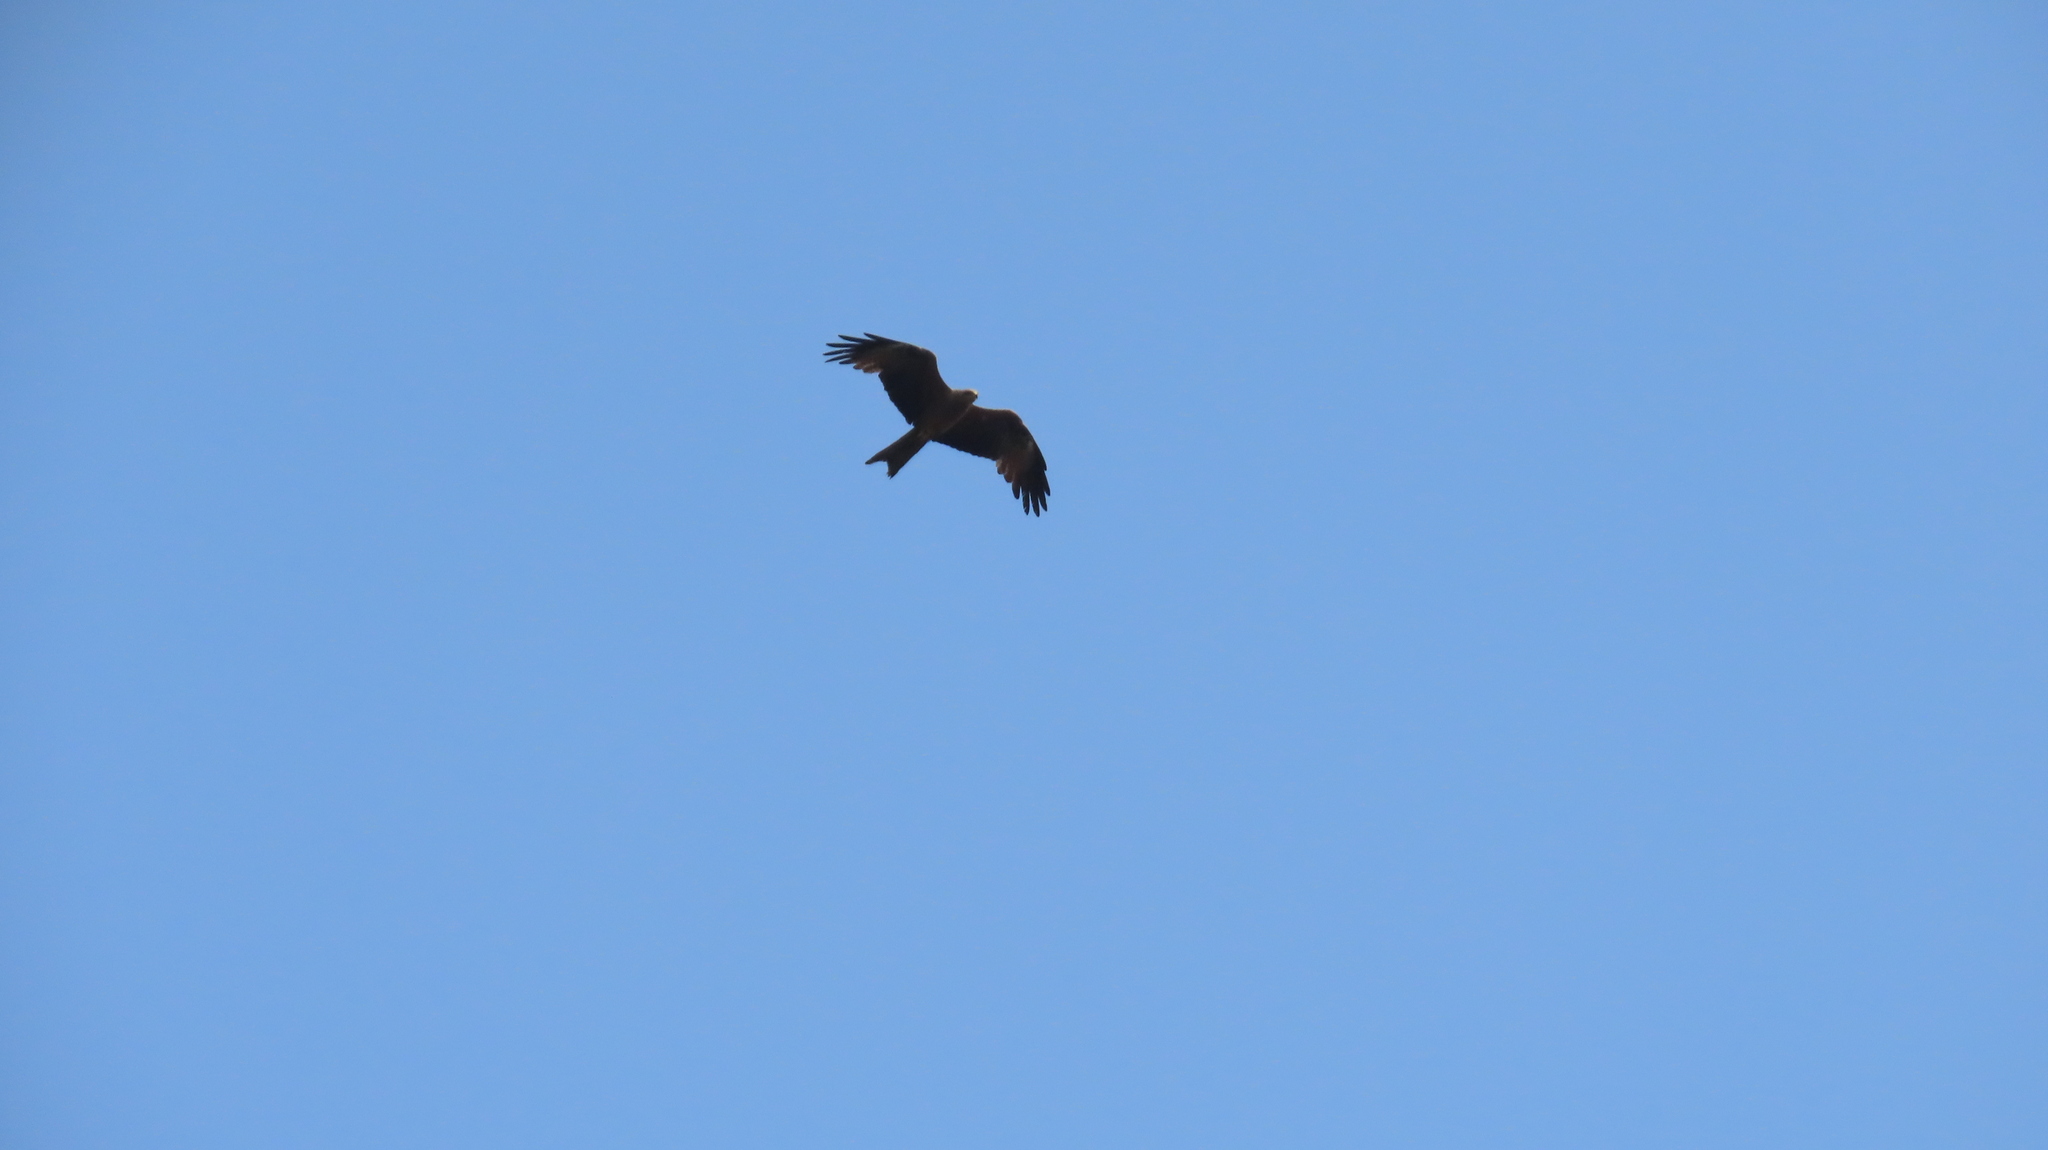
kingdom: Animalia
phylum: Chordata
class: Aves
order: Accipitriformes
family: Accipitridae
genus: Milvus
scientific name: Milvus migrans
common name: Black kite
